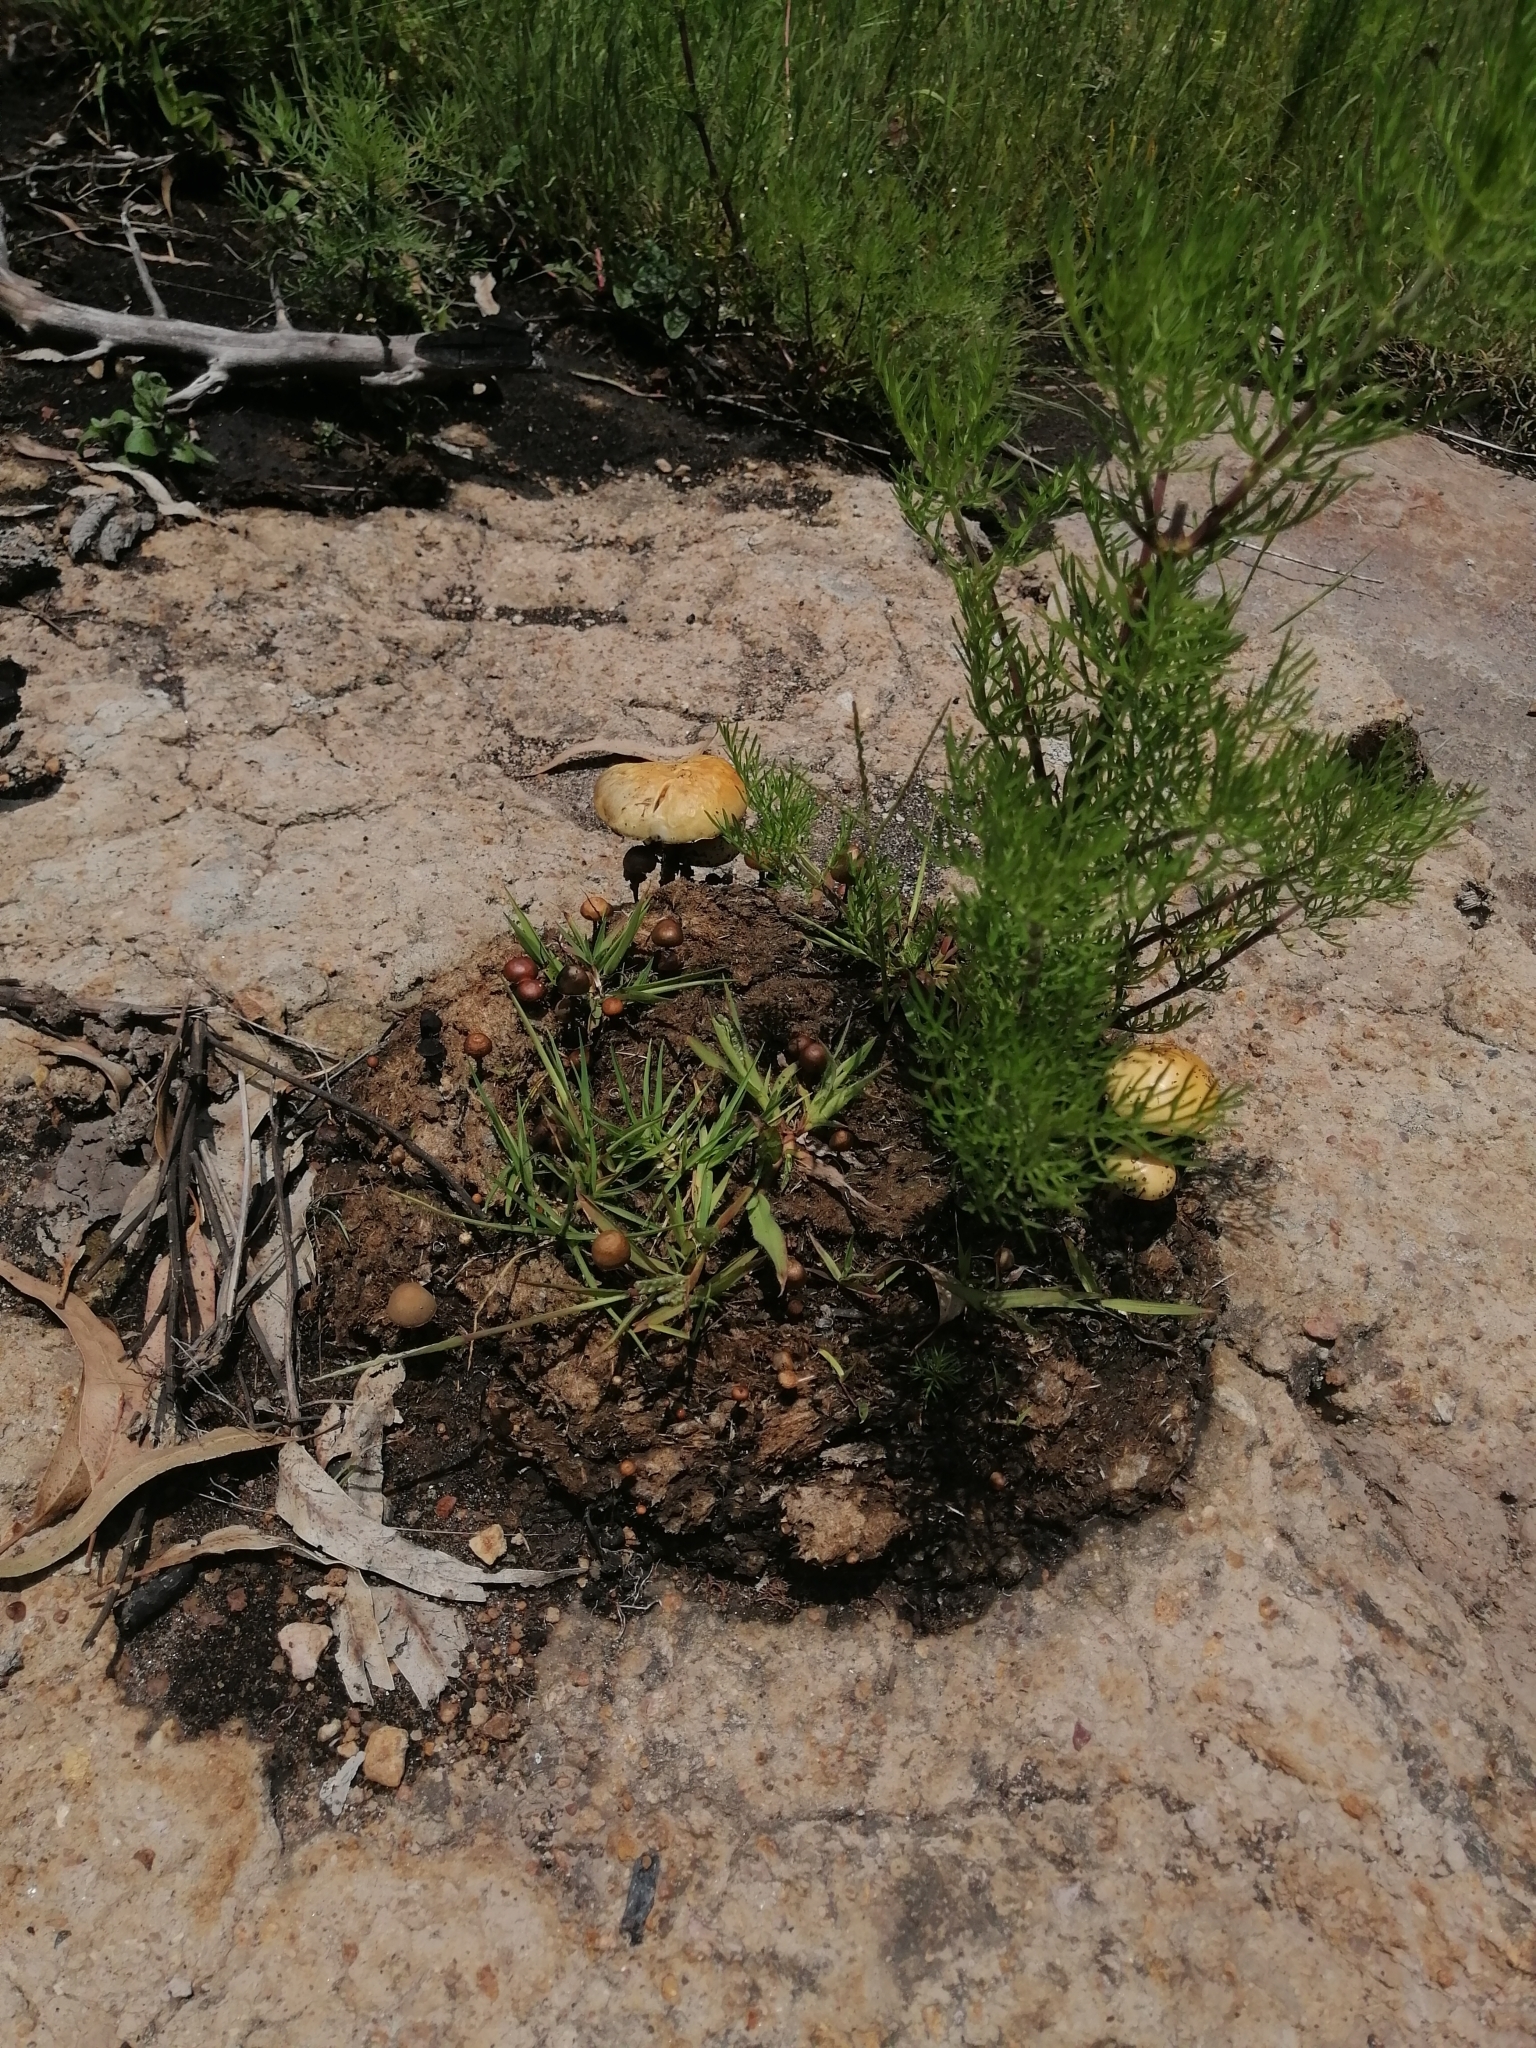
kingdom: Fungi
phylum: Basidiomycota
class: Agaricomycetes
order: Agaricales
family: Strophariaceae
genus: Protostropharia
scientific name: Protostropharia semiglobata
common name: Dung roundhead
